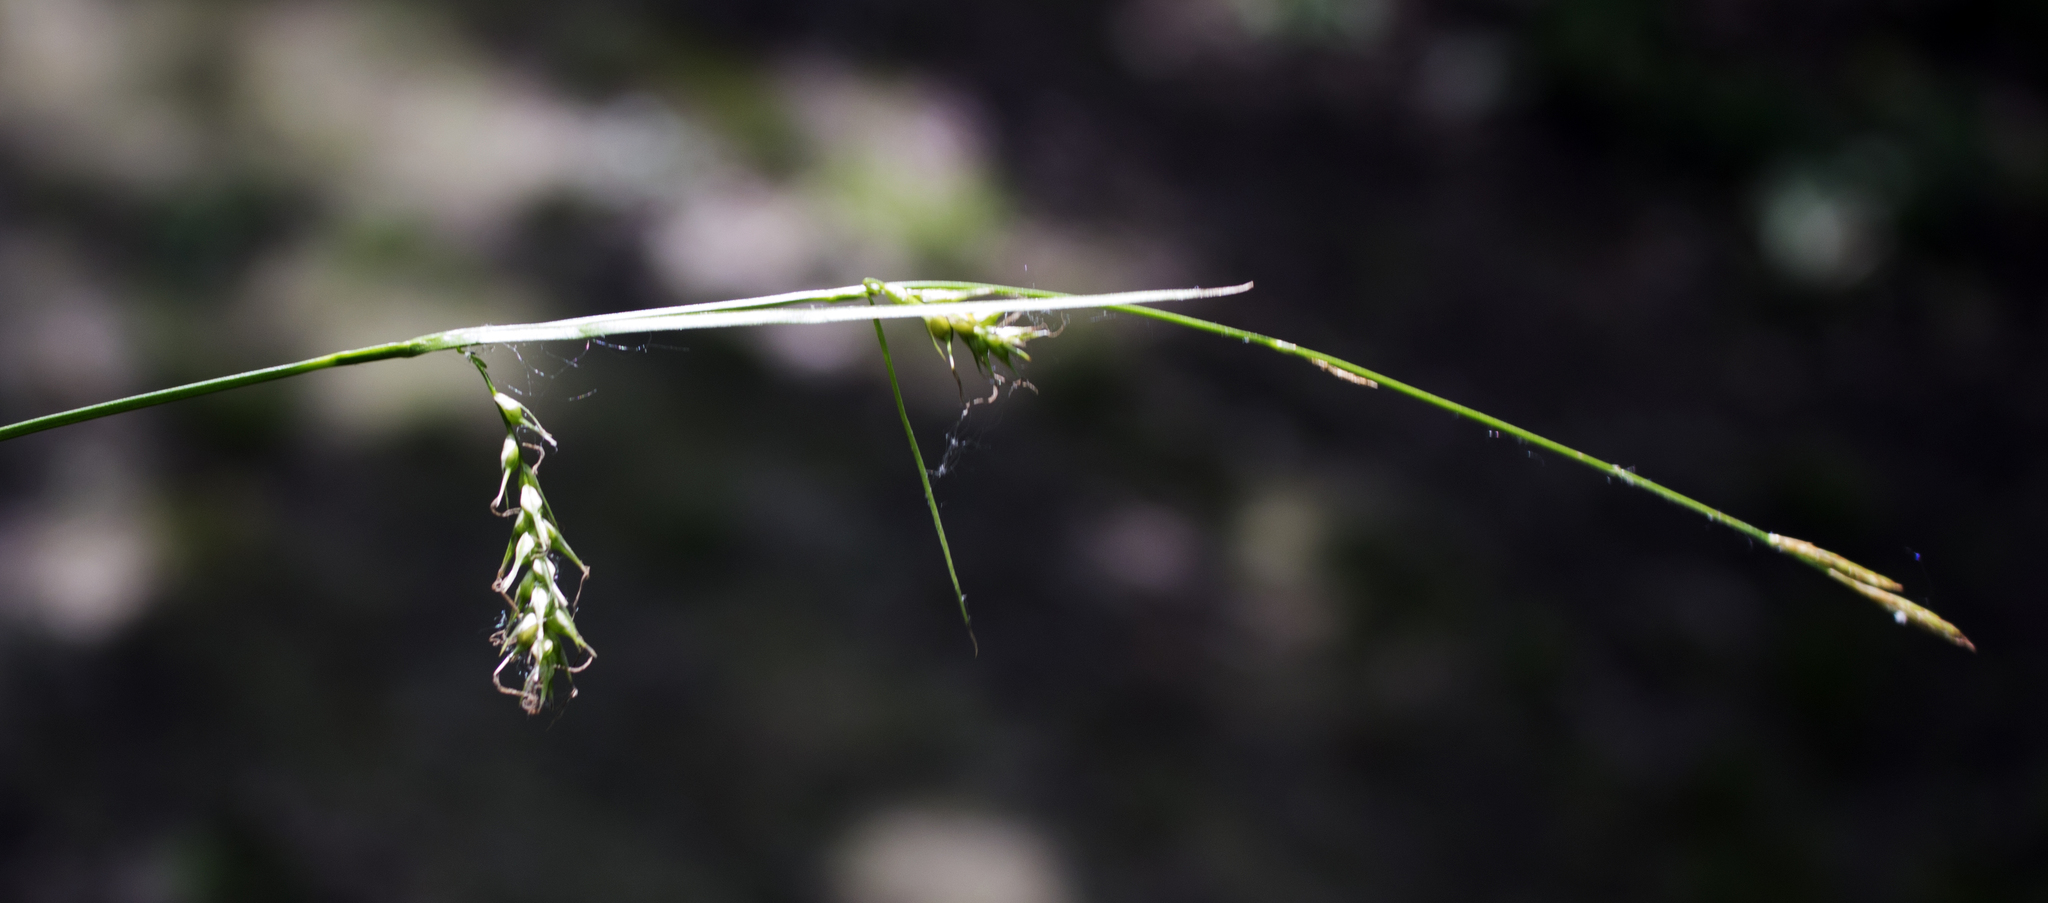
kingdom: Plantae
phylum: Tracheophyta
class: Liliopsida
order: Poales
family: Cyperaceae
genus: Carex
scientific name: Carex sprengelii
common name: Long-beaked sedge
